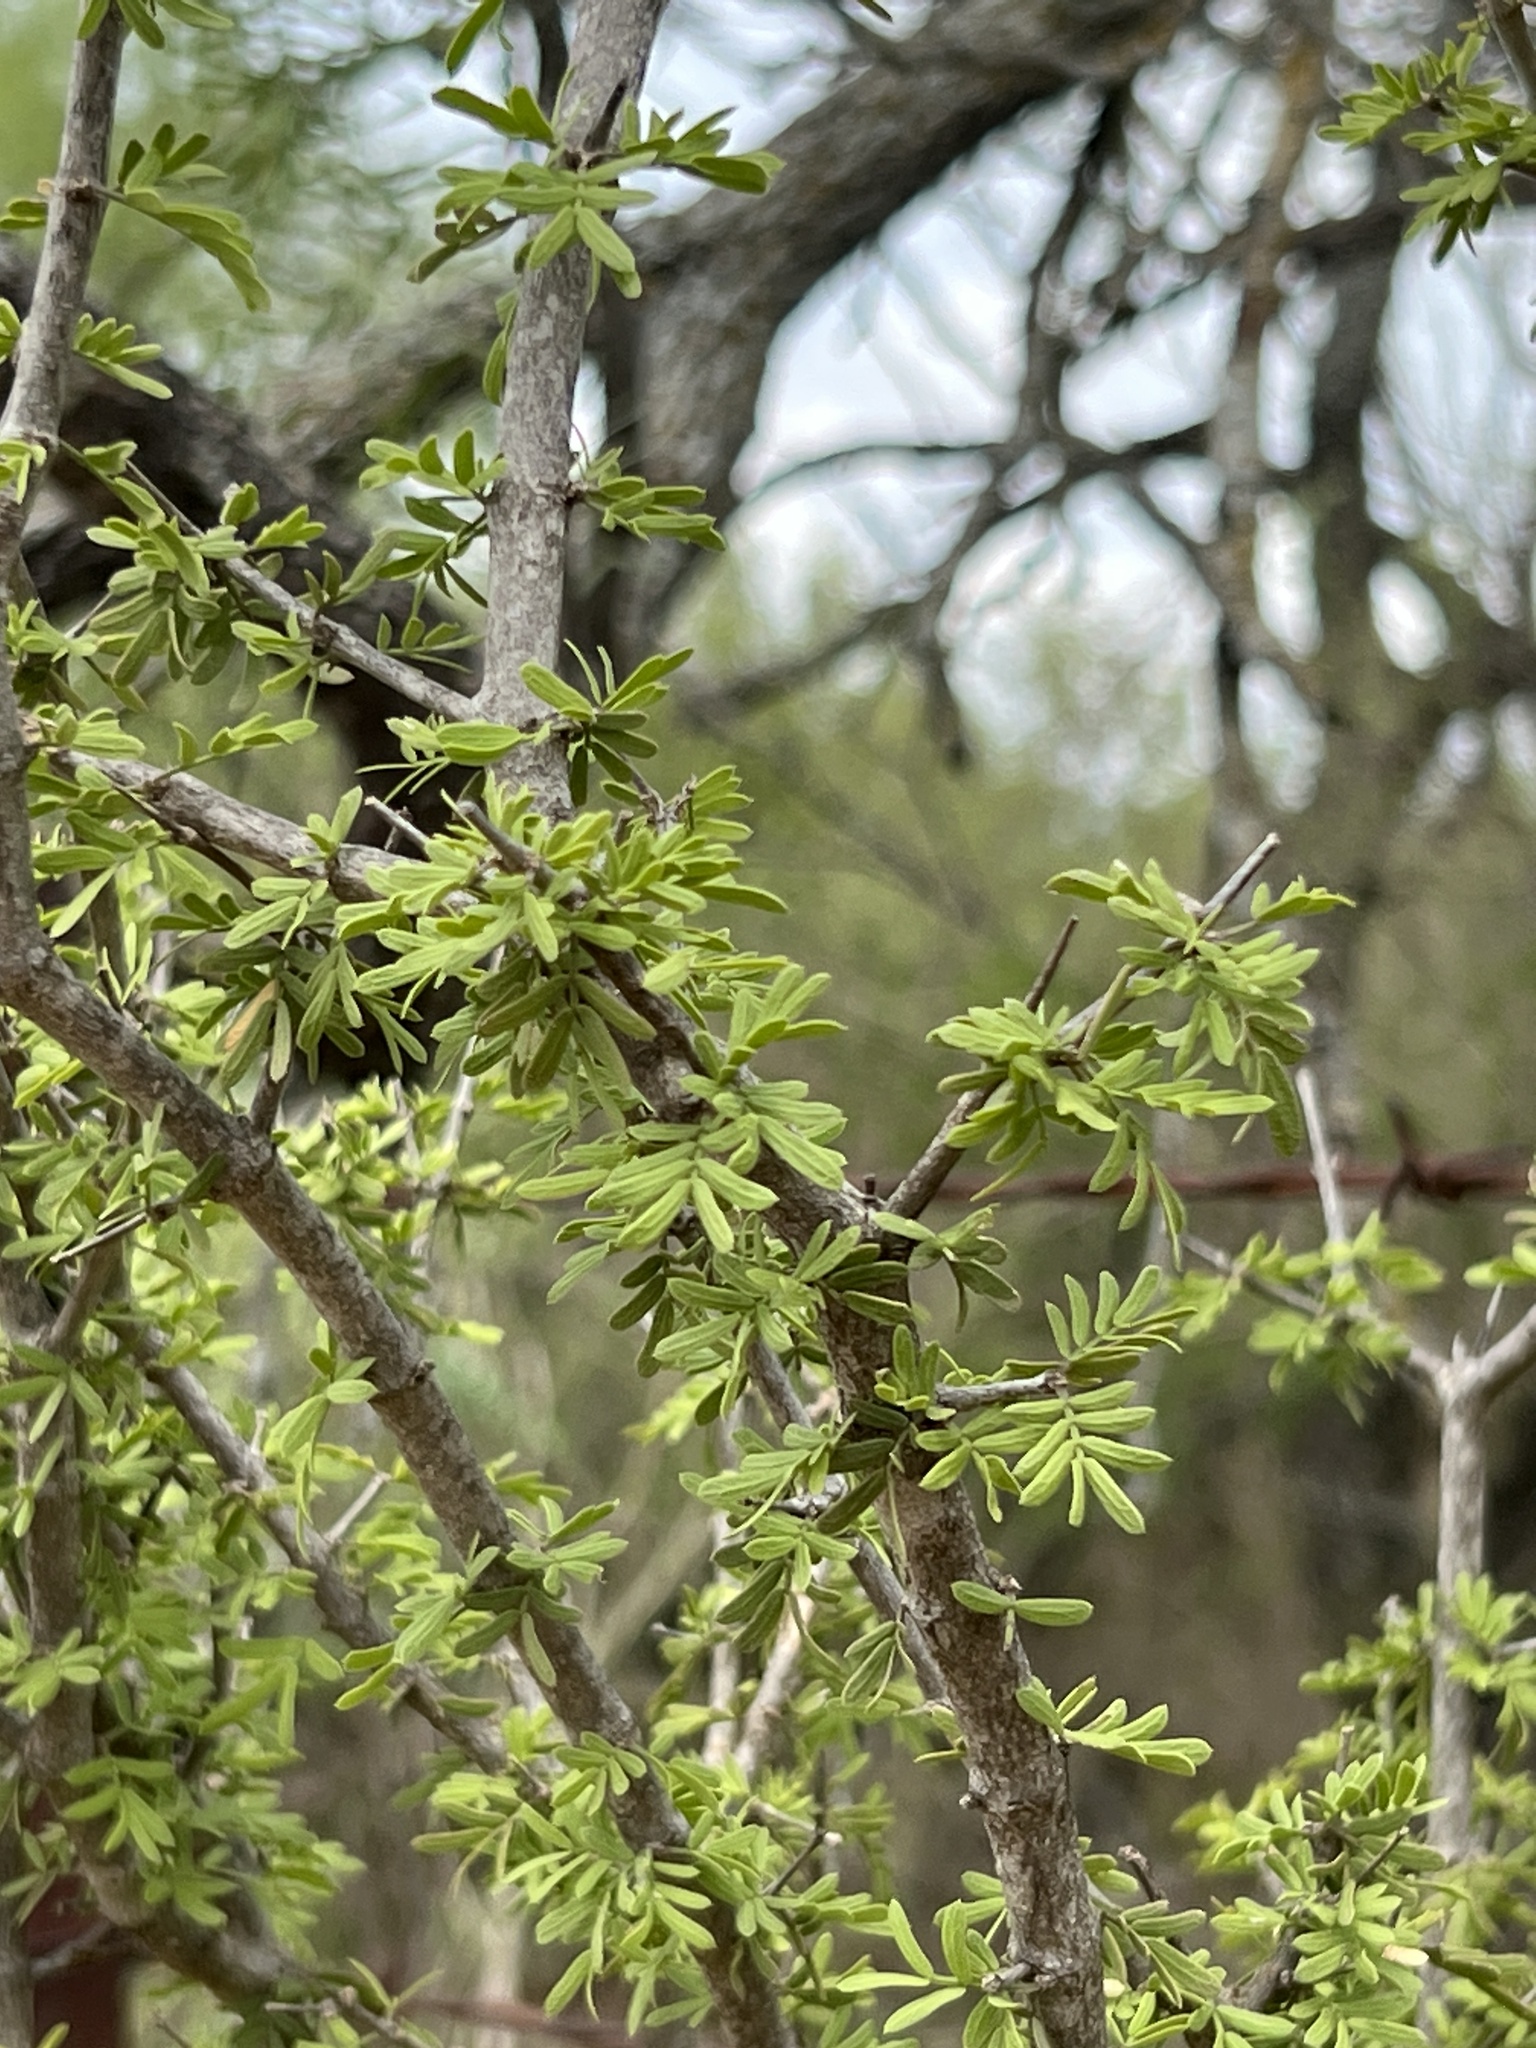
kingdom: Plantae
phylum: Tracheophyta
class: Magnoliopsida
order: Zygophyllales
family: Zygophyllaceae
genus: Porlieria
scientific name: Porlieria angustifolia
